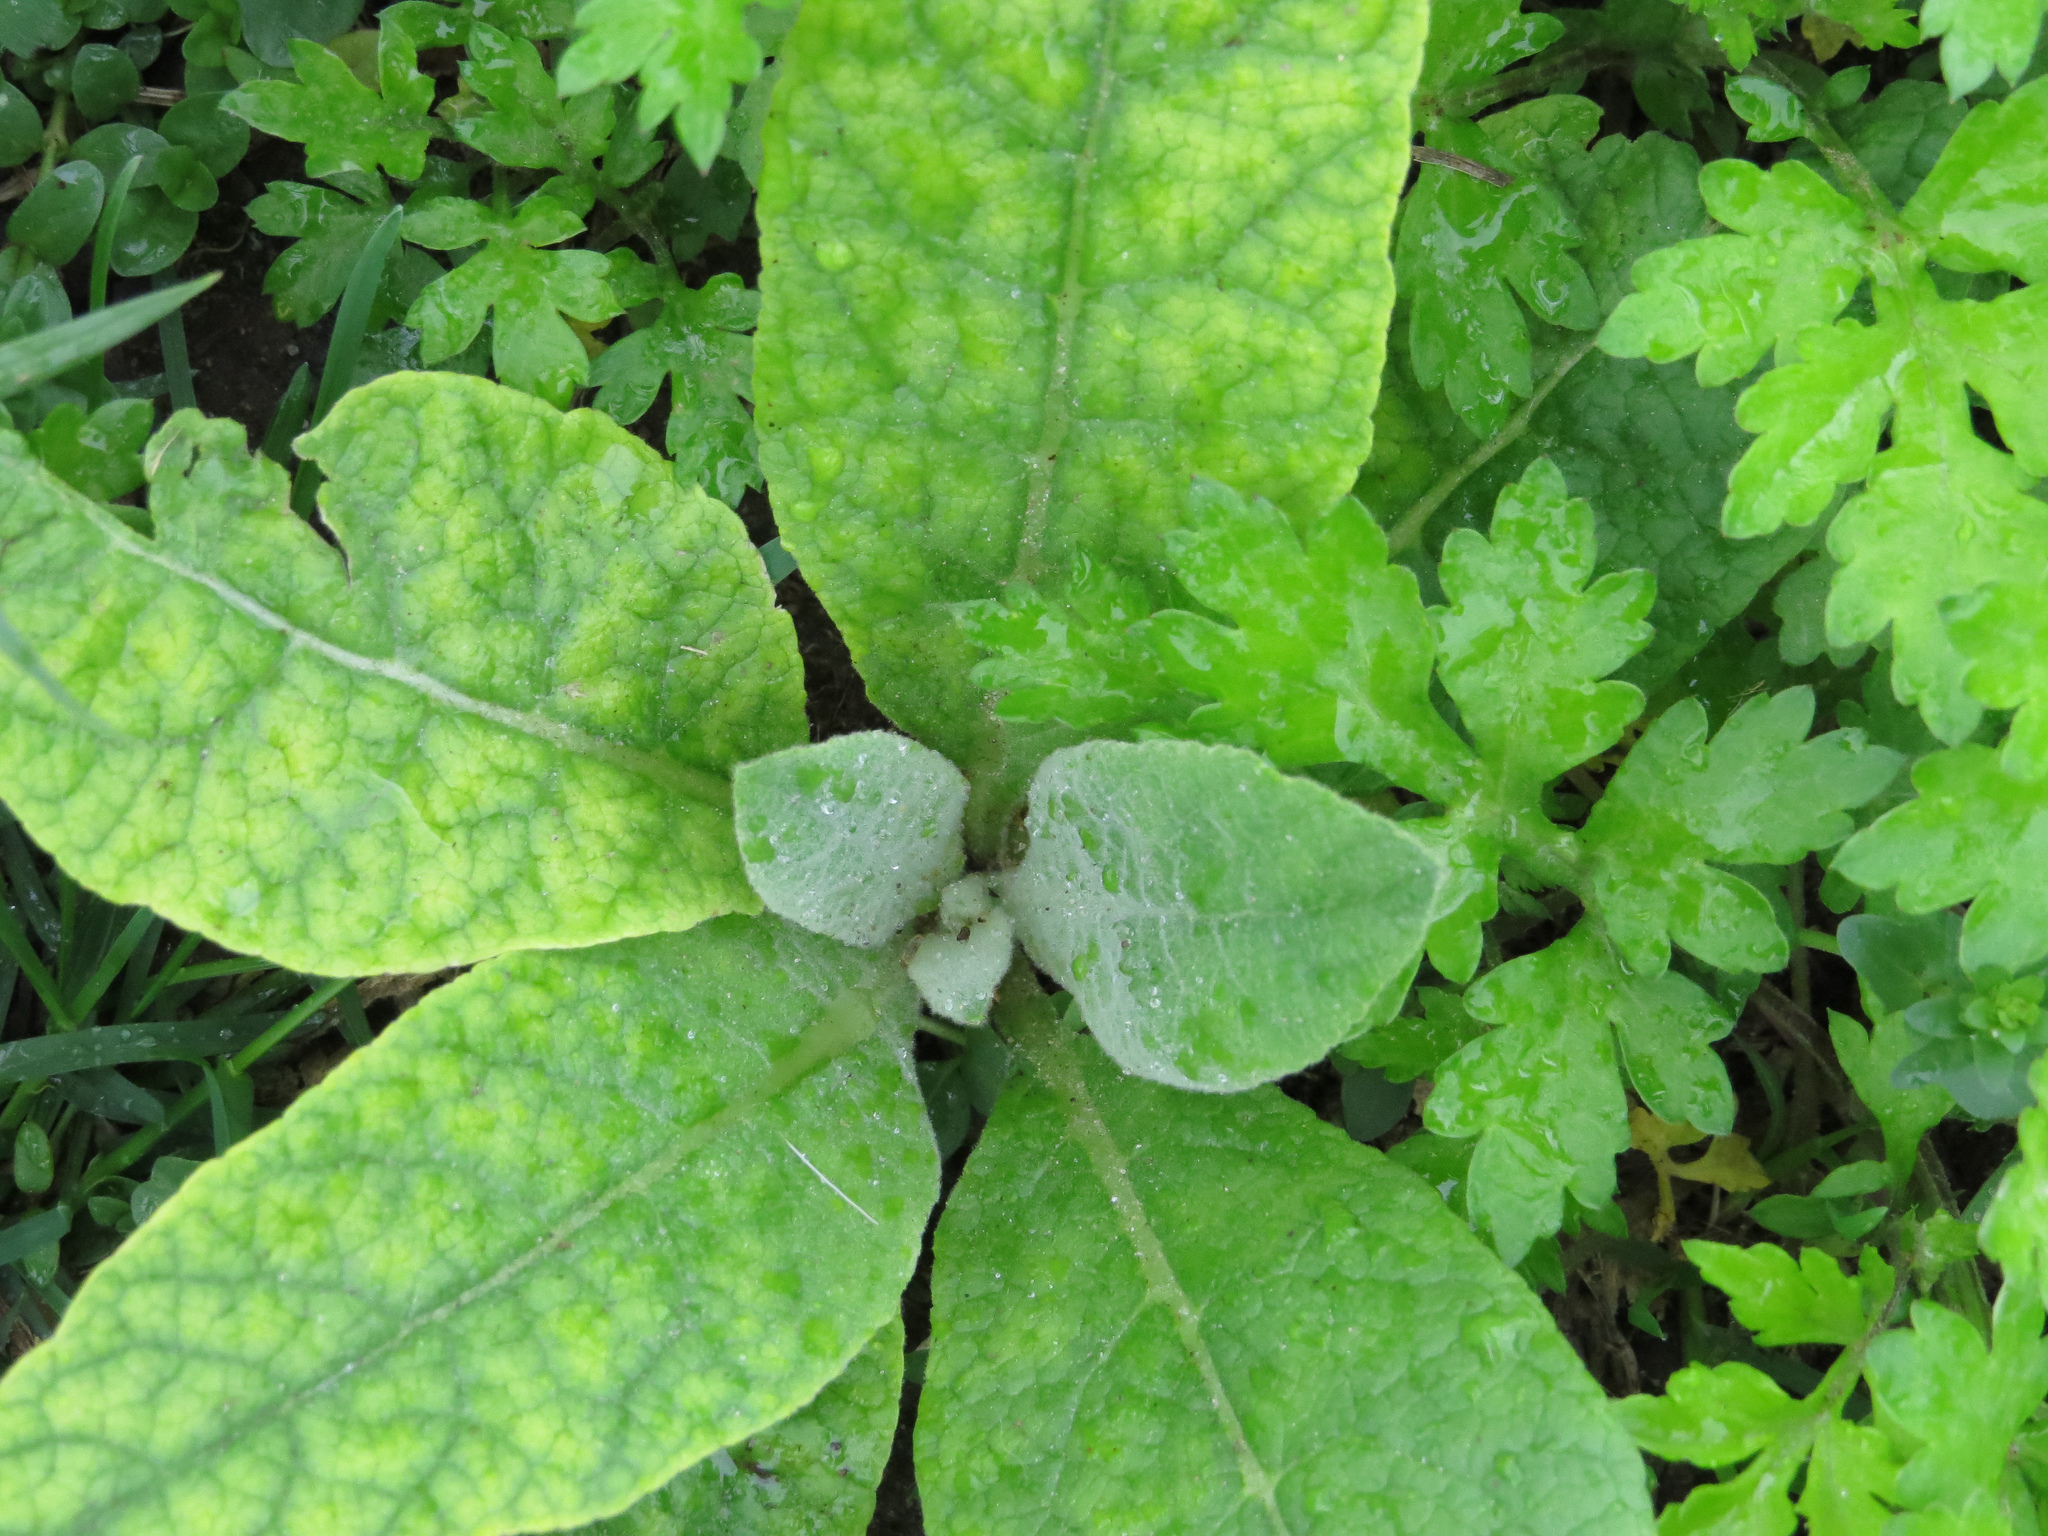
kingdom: Plantae
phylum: Tracheophyta
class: Magnoliopsida
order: Lamiales
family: Scrophulariaceae
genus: Verbascum
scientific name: Verbascum thapsus
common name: Common mullein
